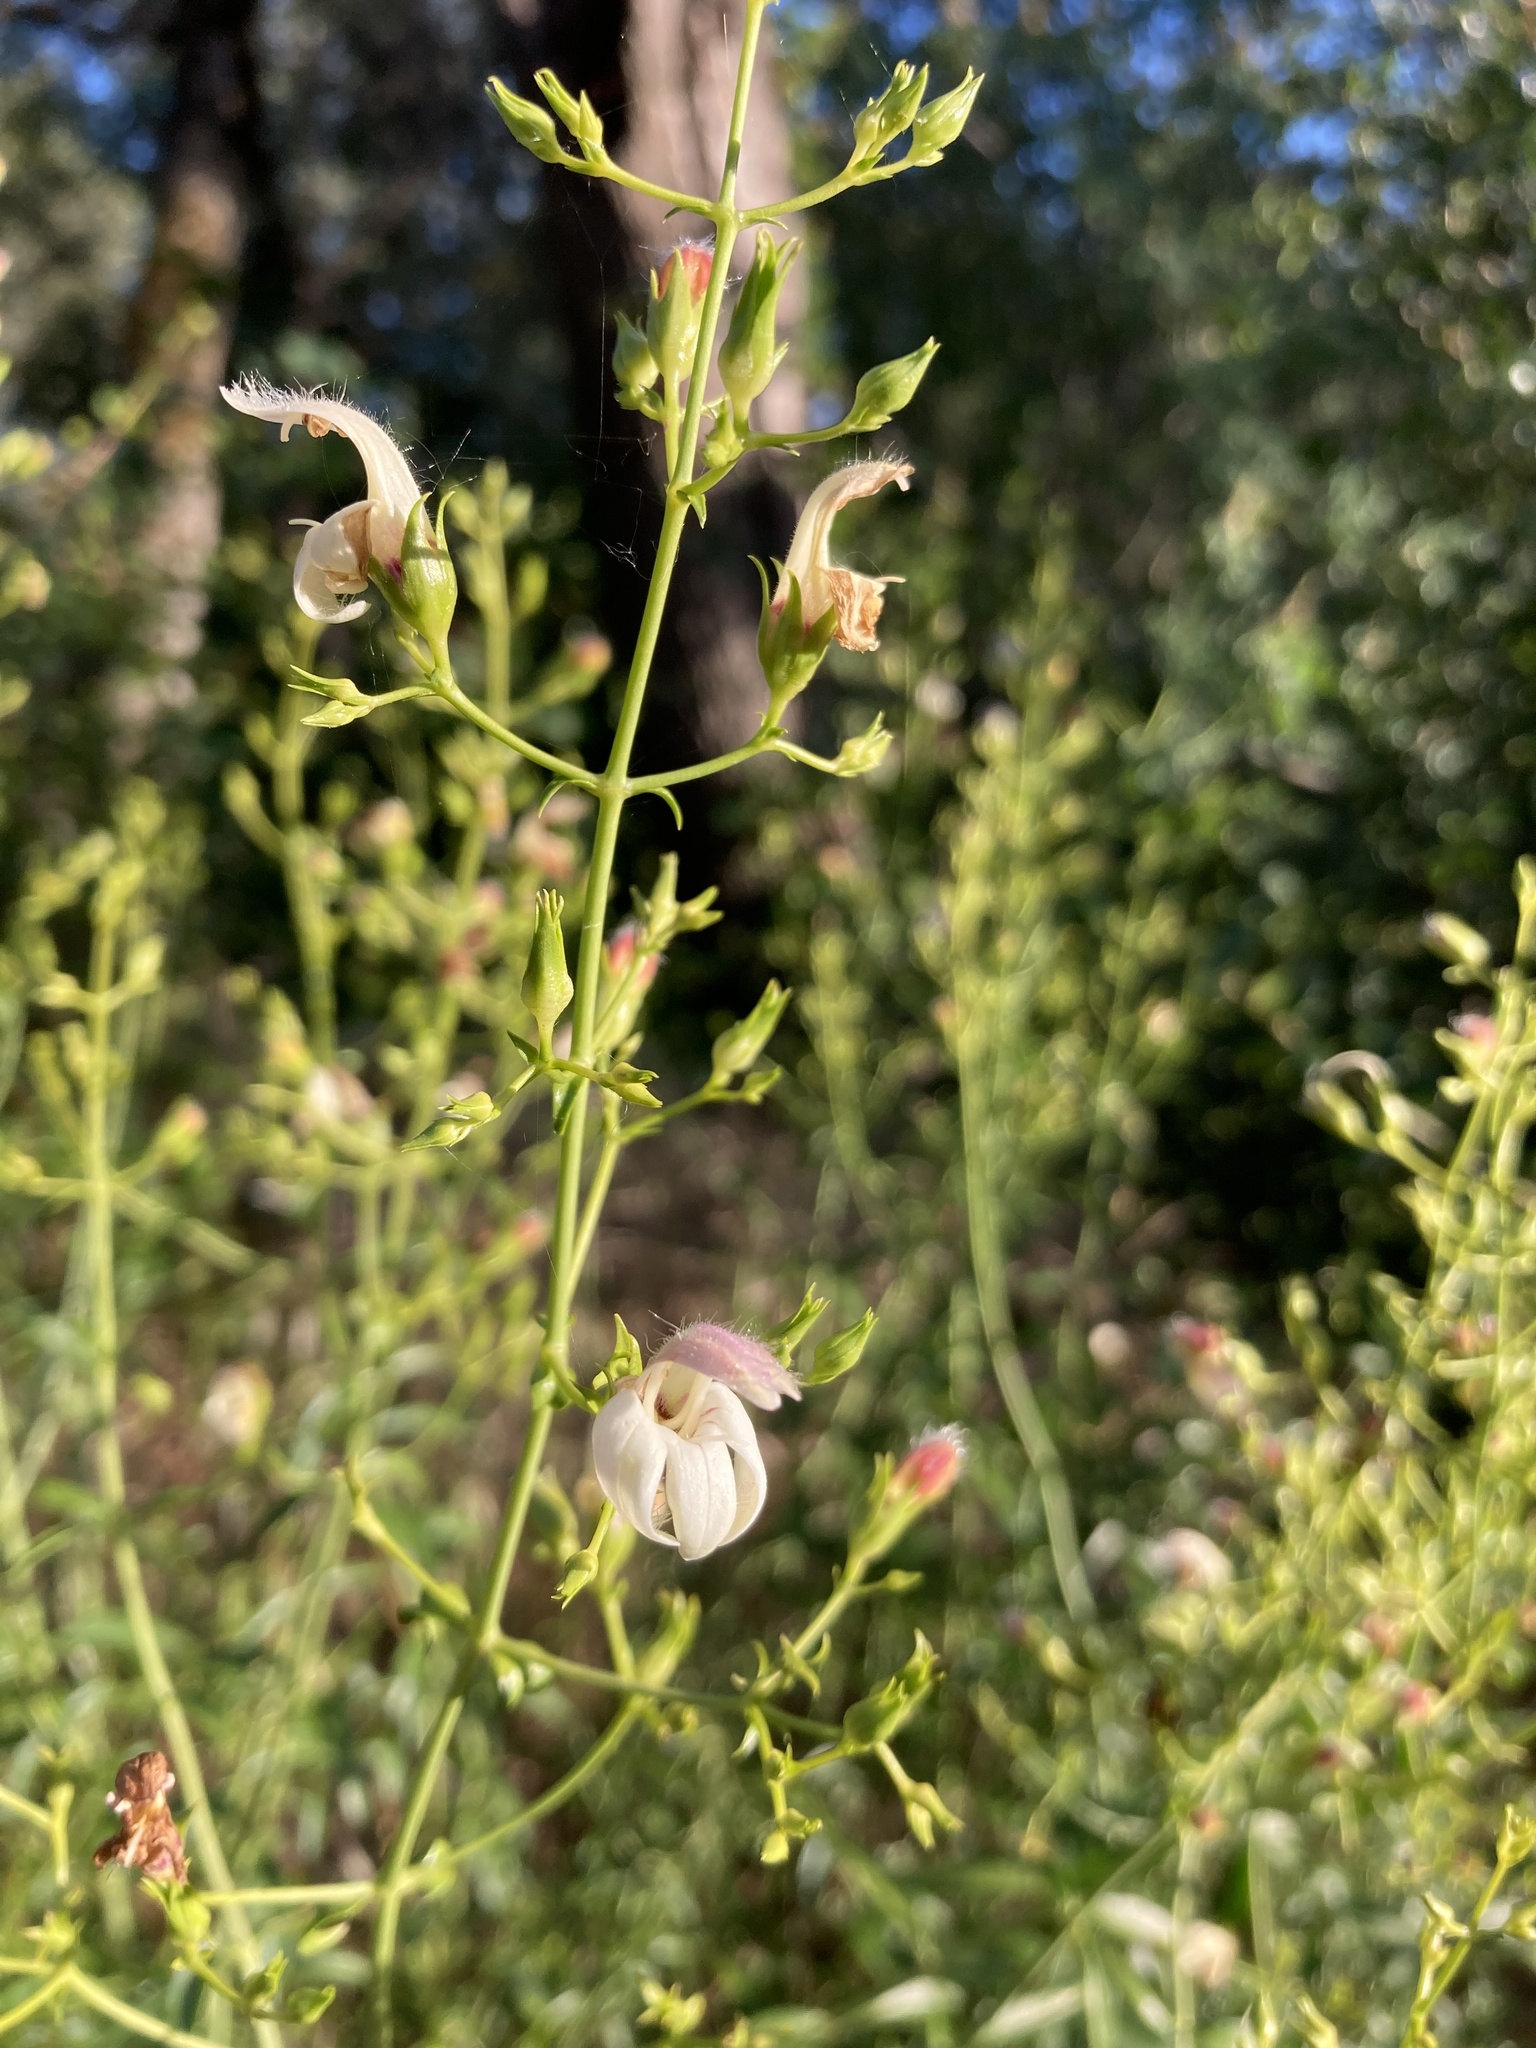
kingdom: Plantae
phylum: Tracheophyta
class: Magnoliopsida
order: Lamiales
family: Plantaginaceae
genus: Keckiella
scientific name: Keckiella breviflora
